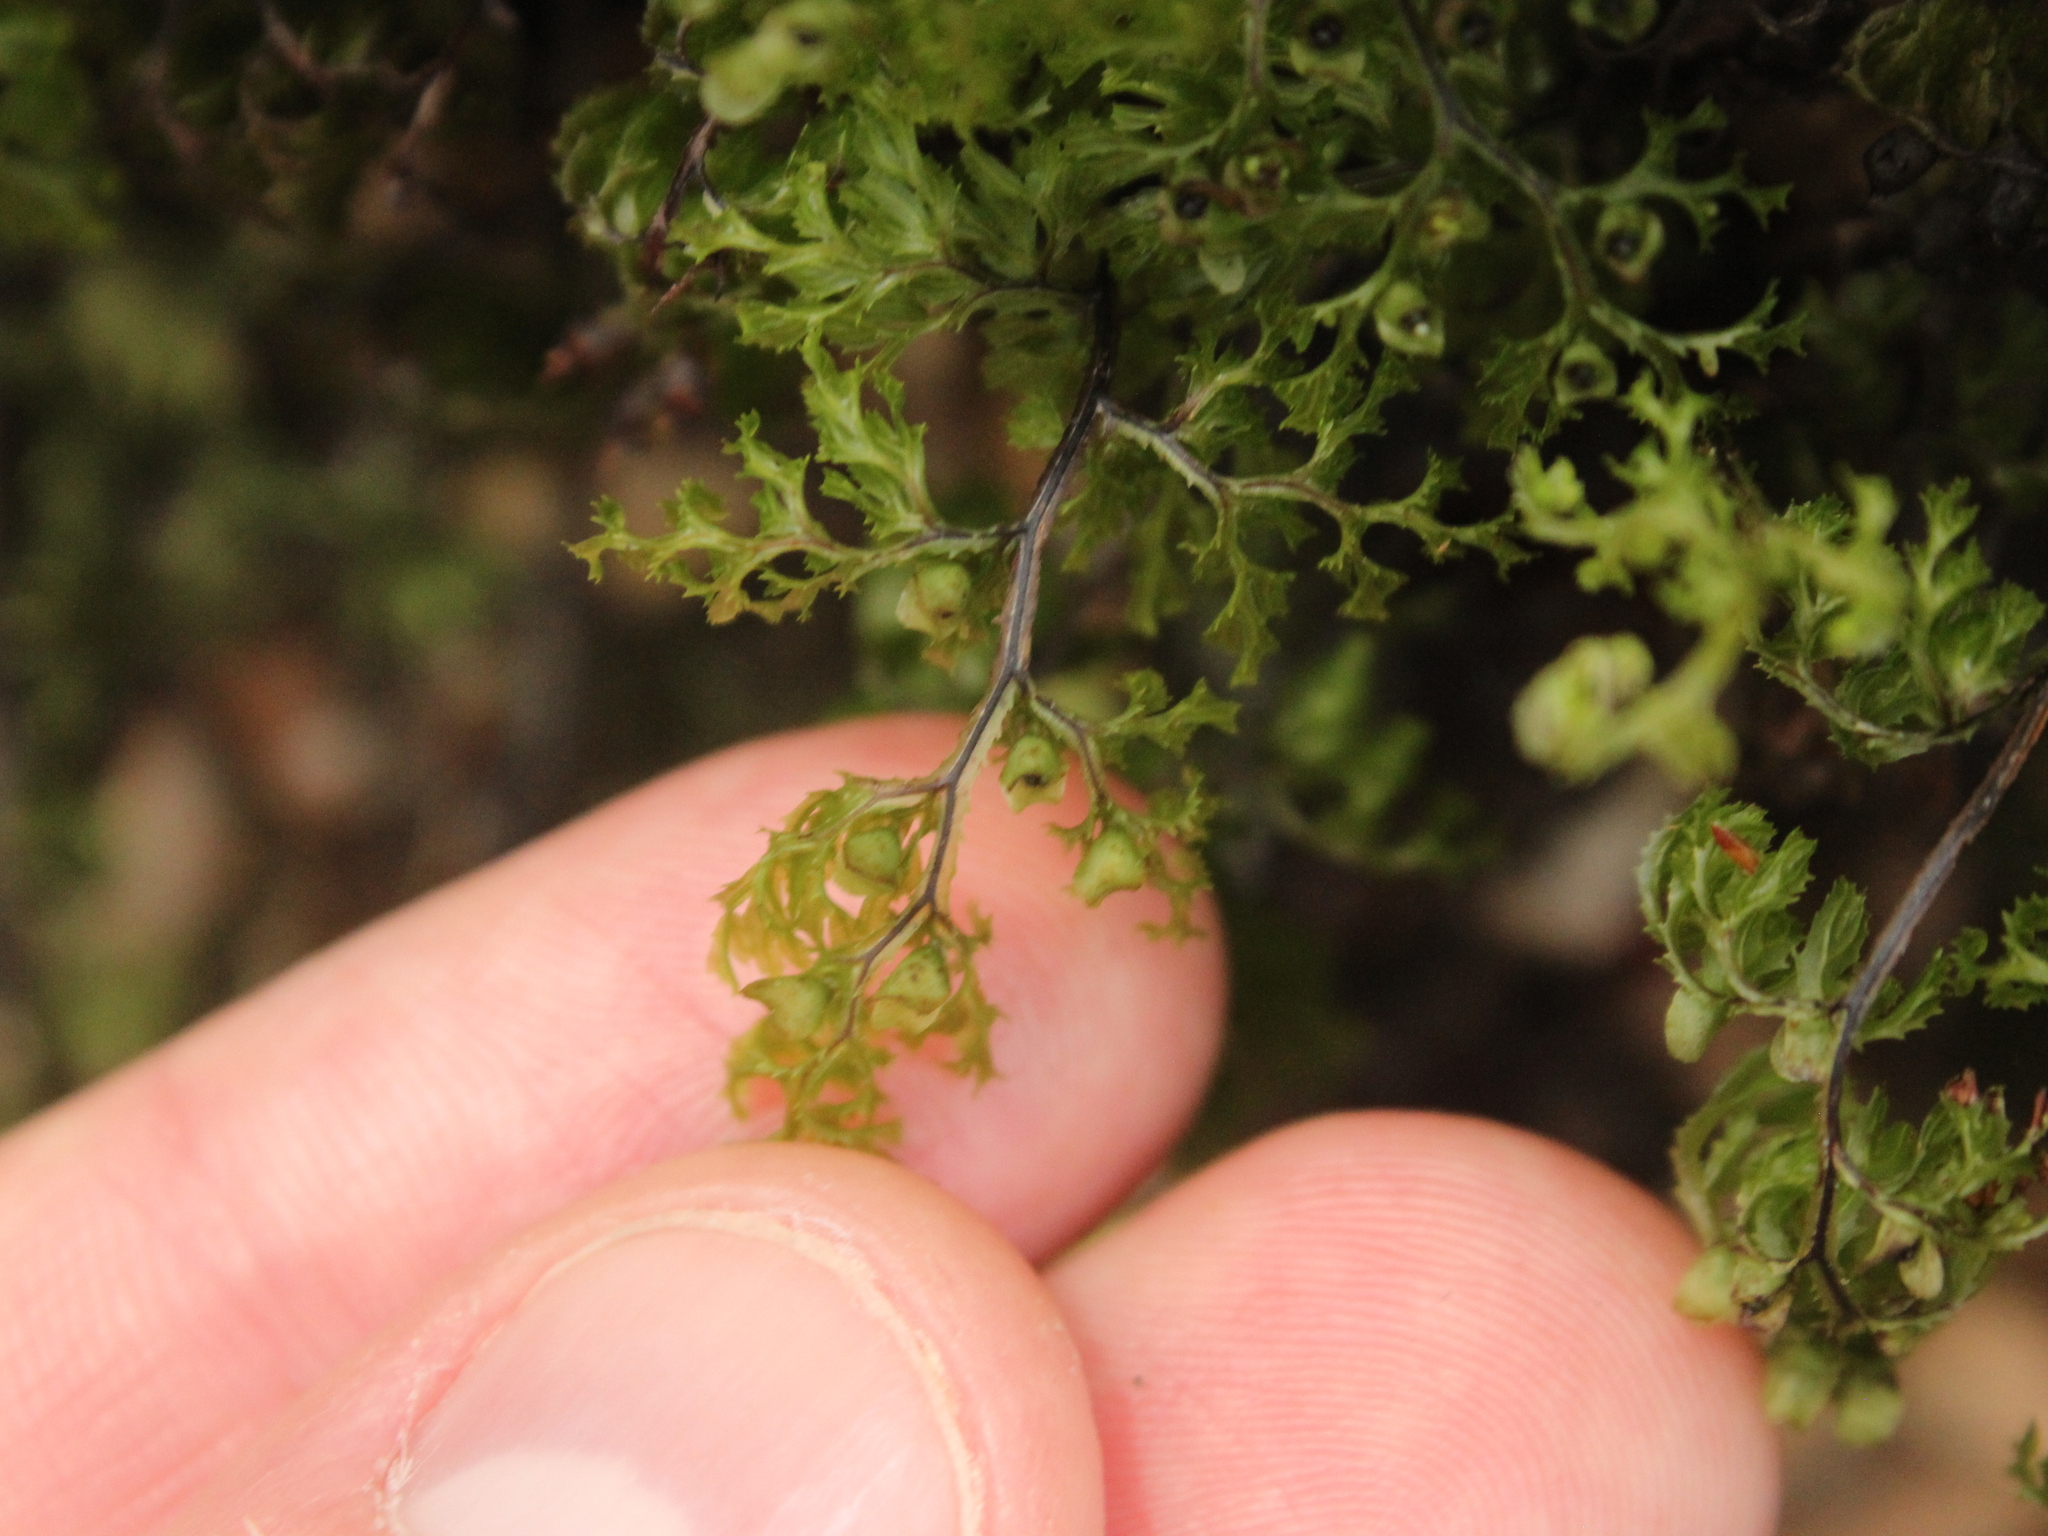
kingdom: Plantae
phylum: Tracheophyta
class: Polypodiopsida
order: Hymenophyllales
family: Hymenophyllaceae
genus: Hymenophyllum
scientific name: Hymenophyllum multifidum
